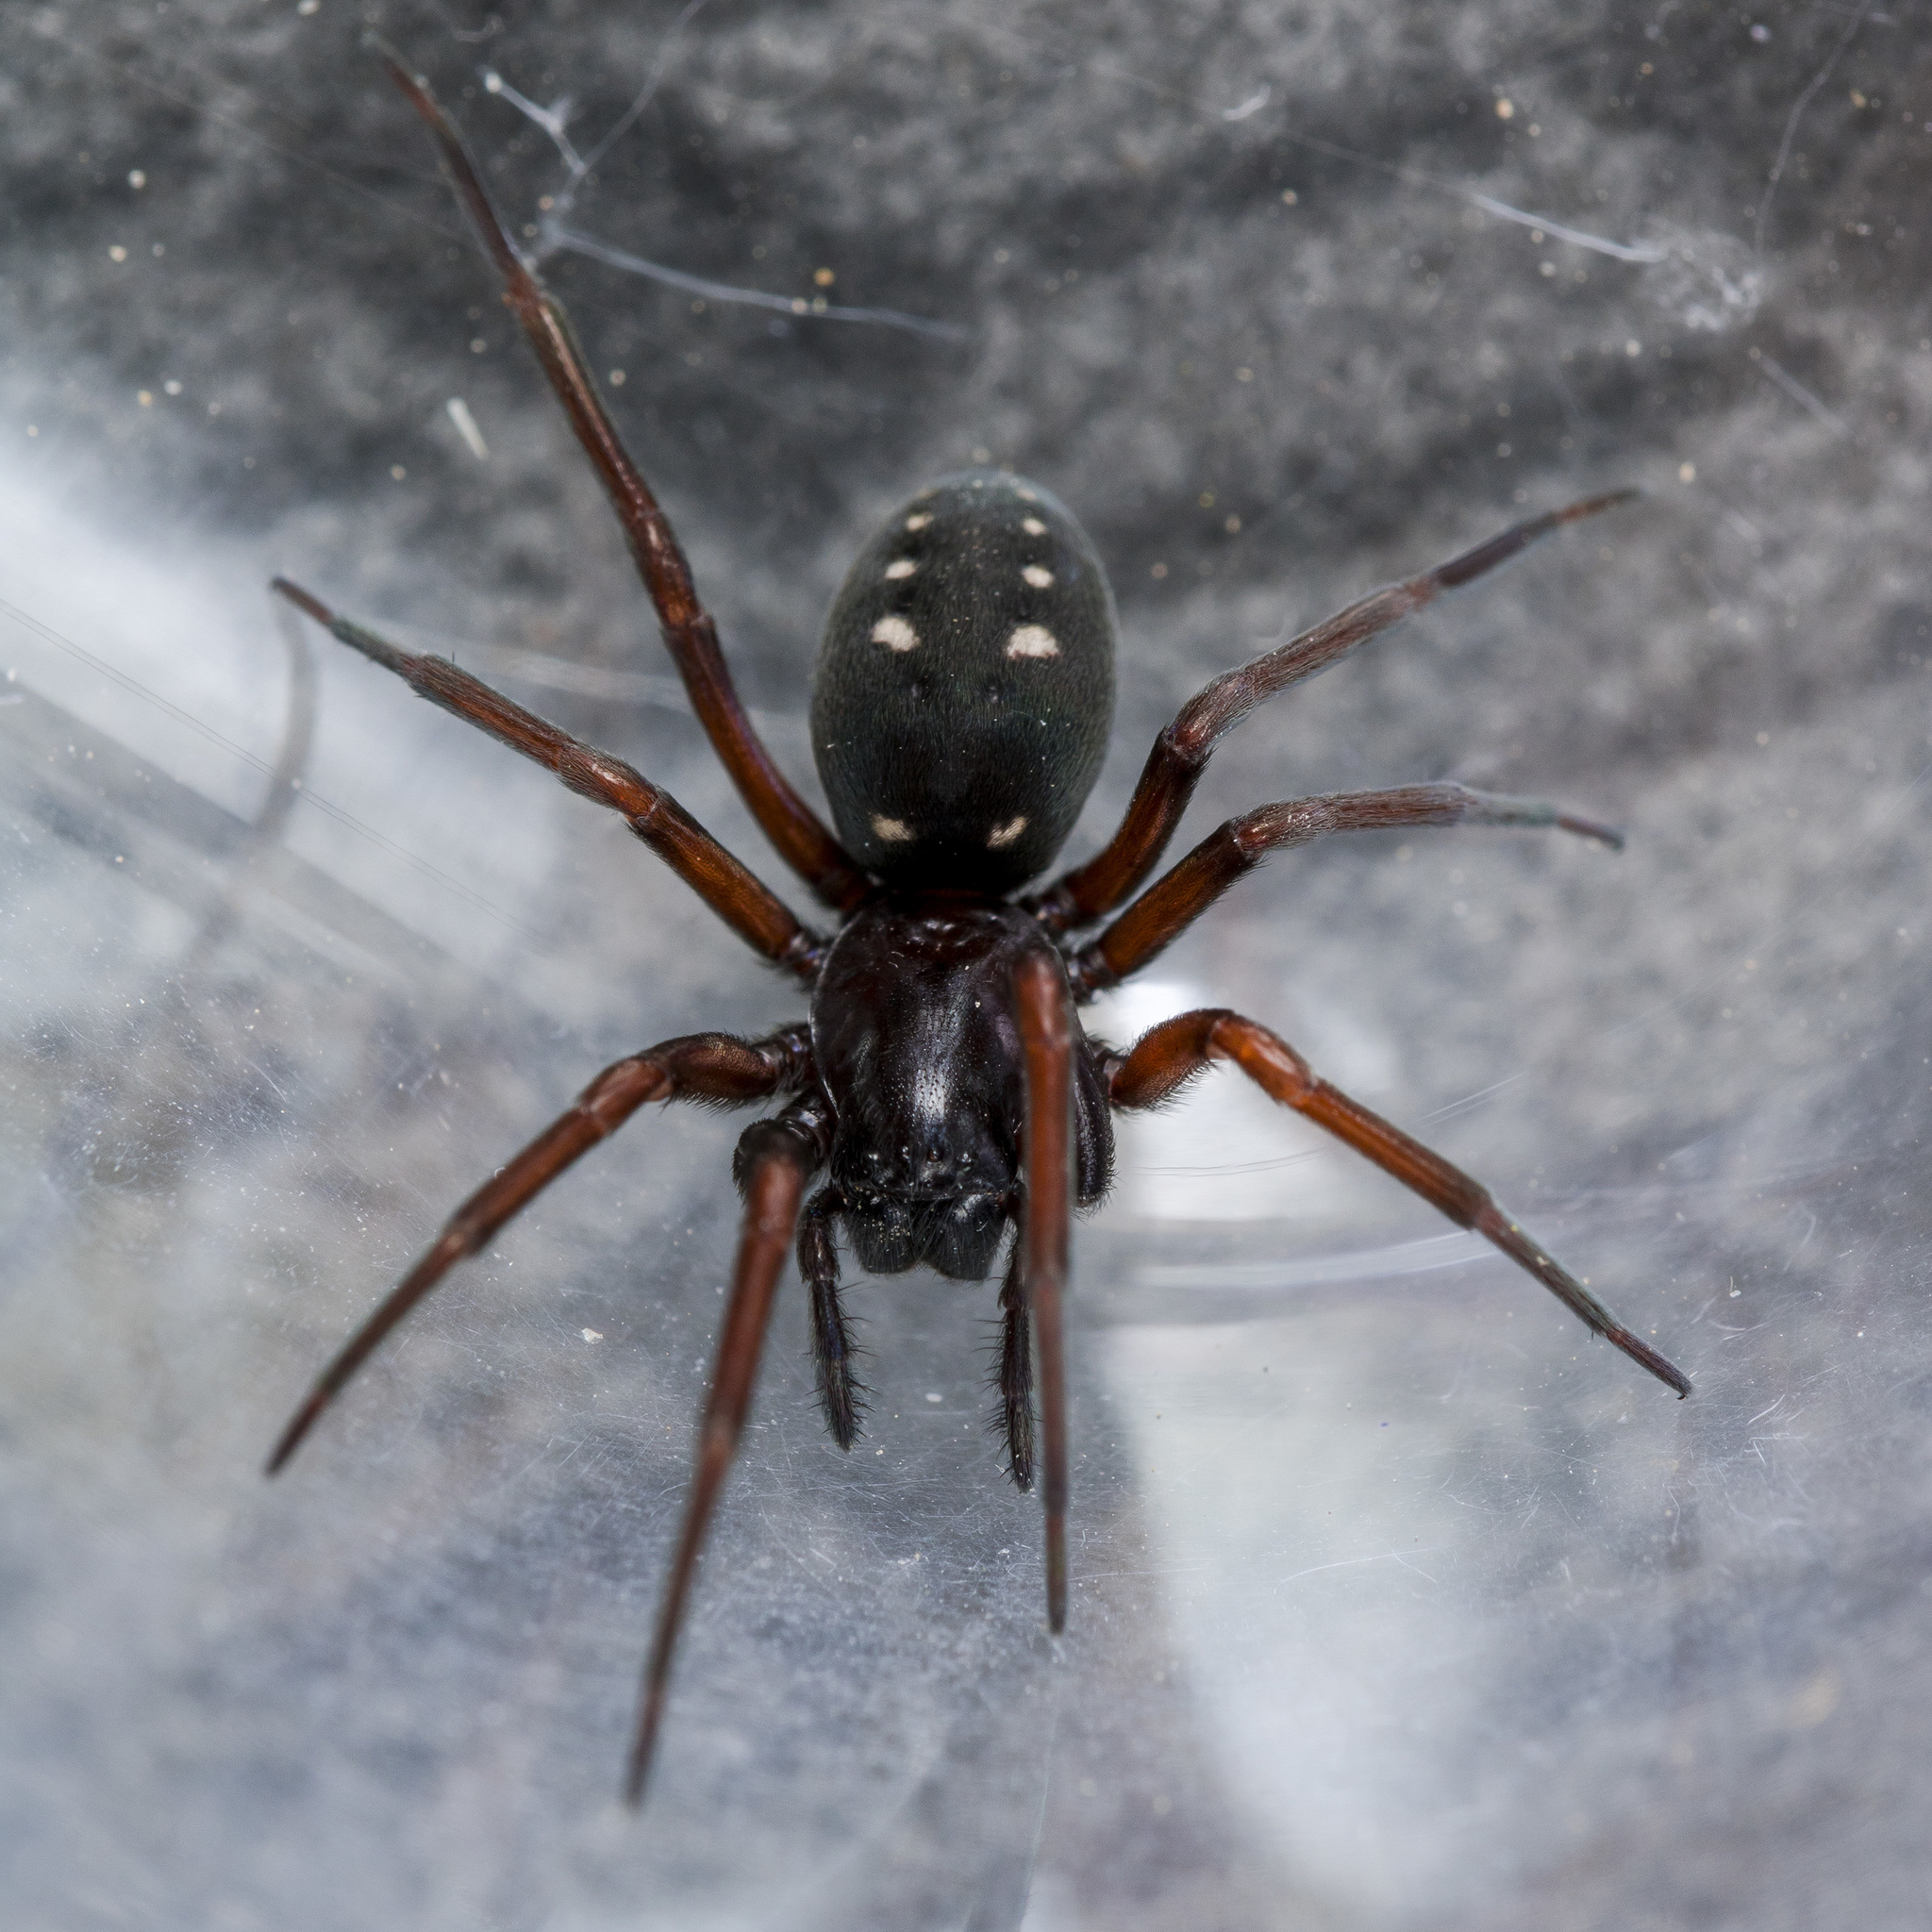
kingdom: Animalia
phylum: Arthropoda
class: Arachnida
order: Araneae
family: Titanoecidae
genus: Nurscia
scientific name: Nurscia albosignata
